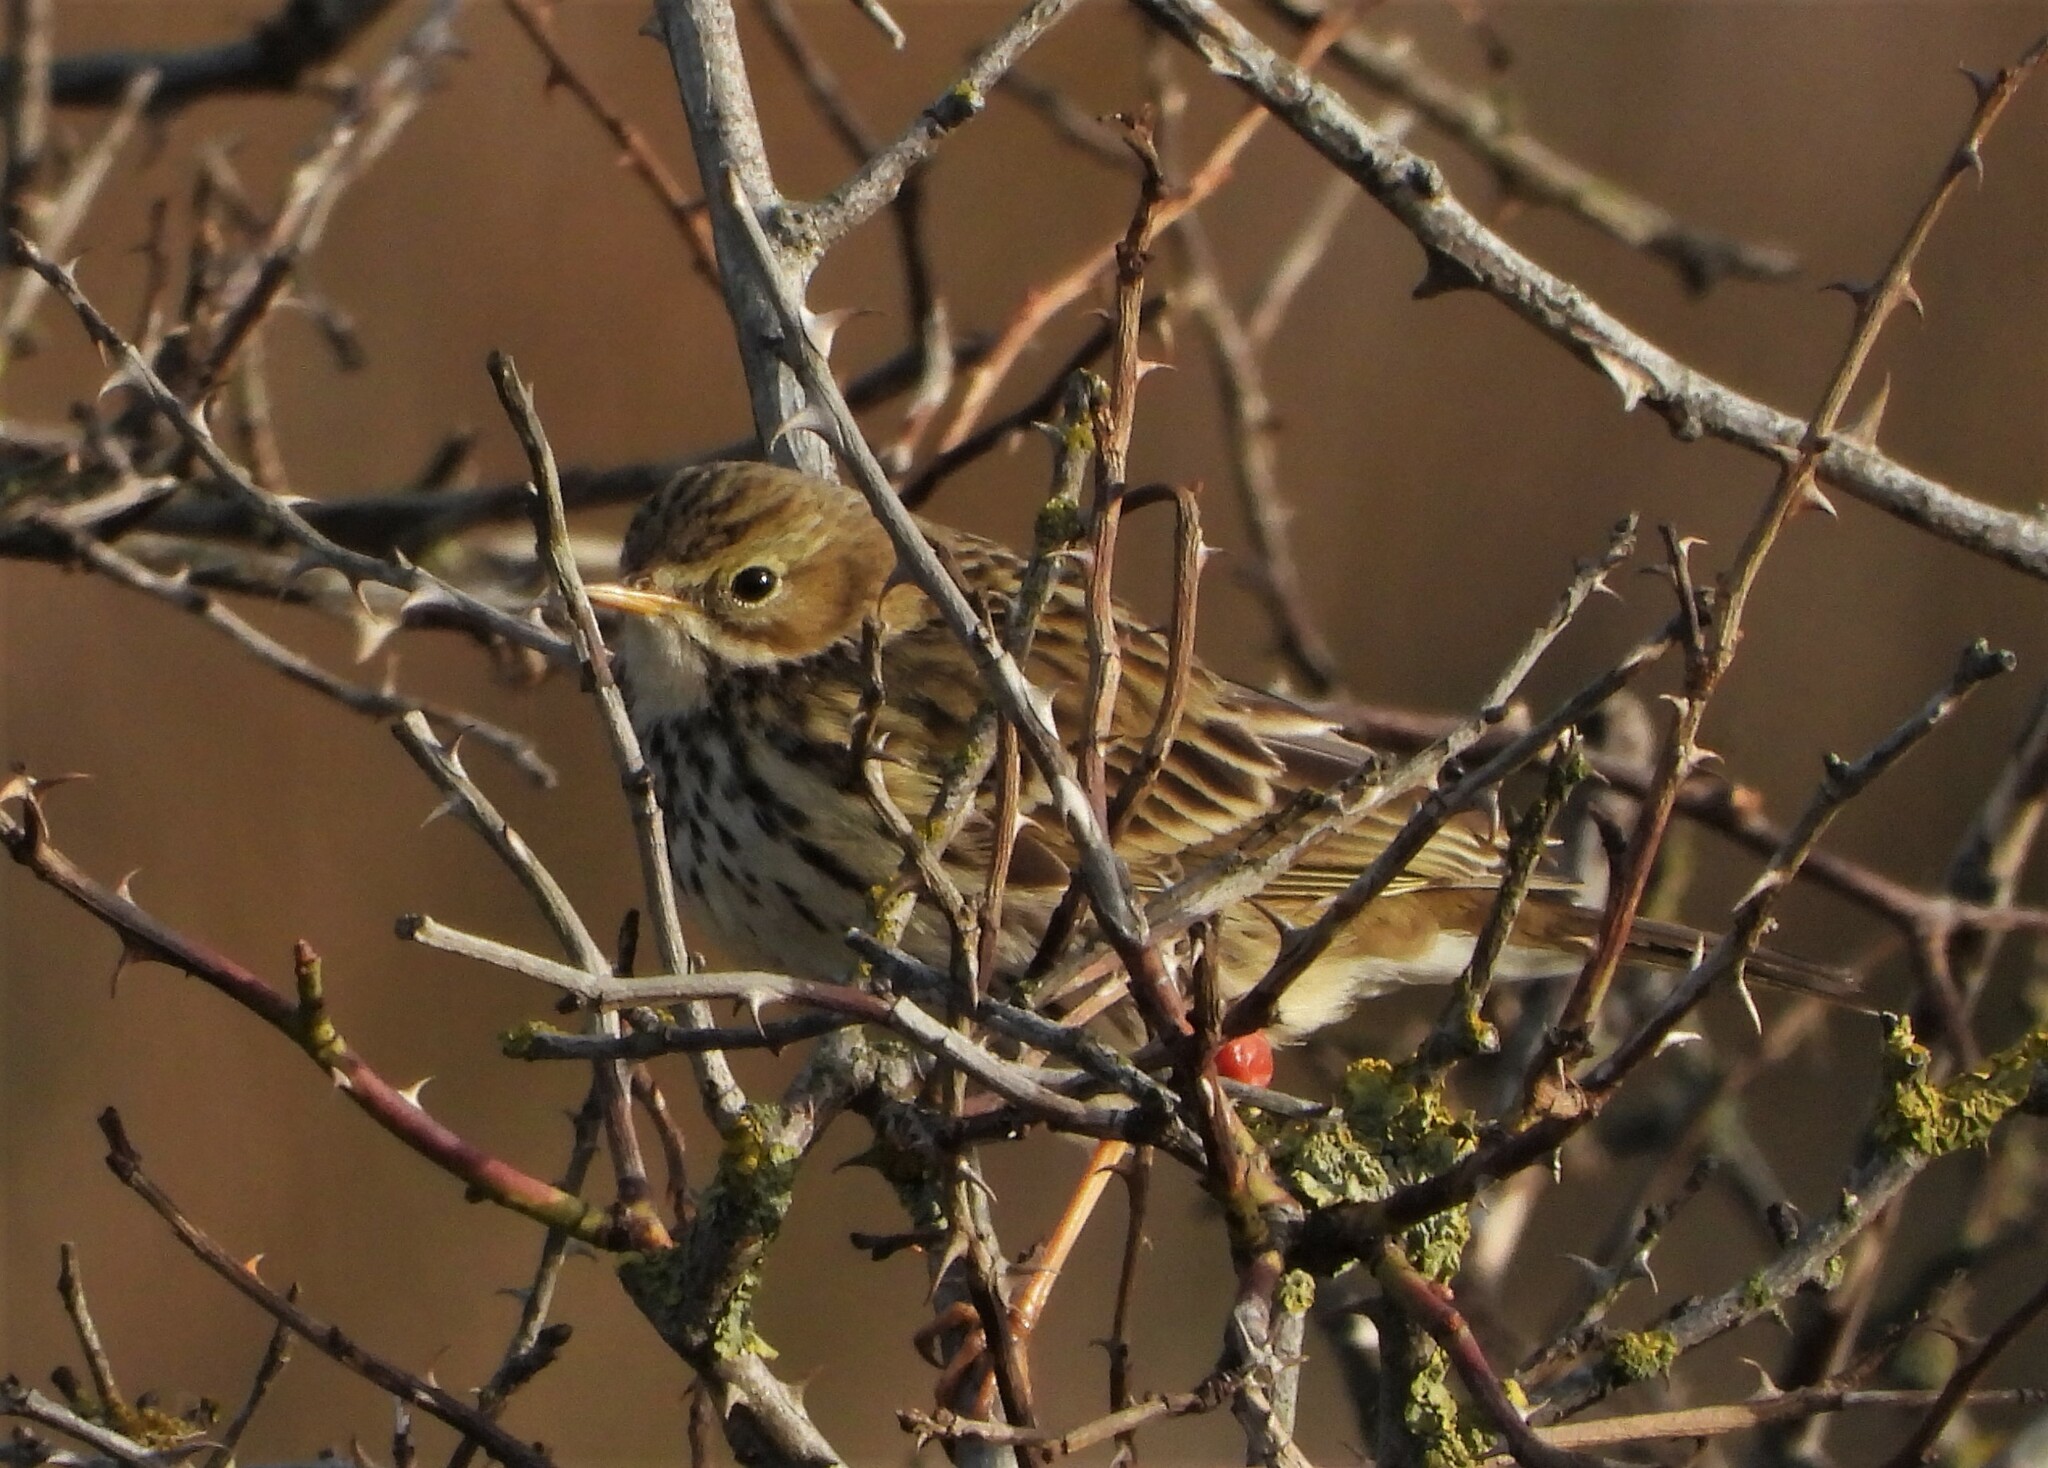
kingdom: Animalia
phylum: Chordata
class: Aves
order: Passeriformes
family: Motacillidae
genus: Anthus
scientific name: Anthus pratensis
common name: Meadow pipit
